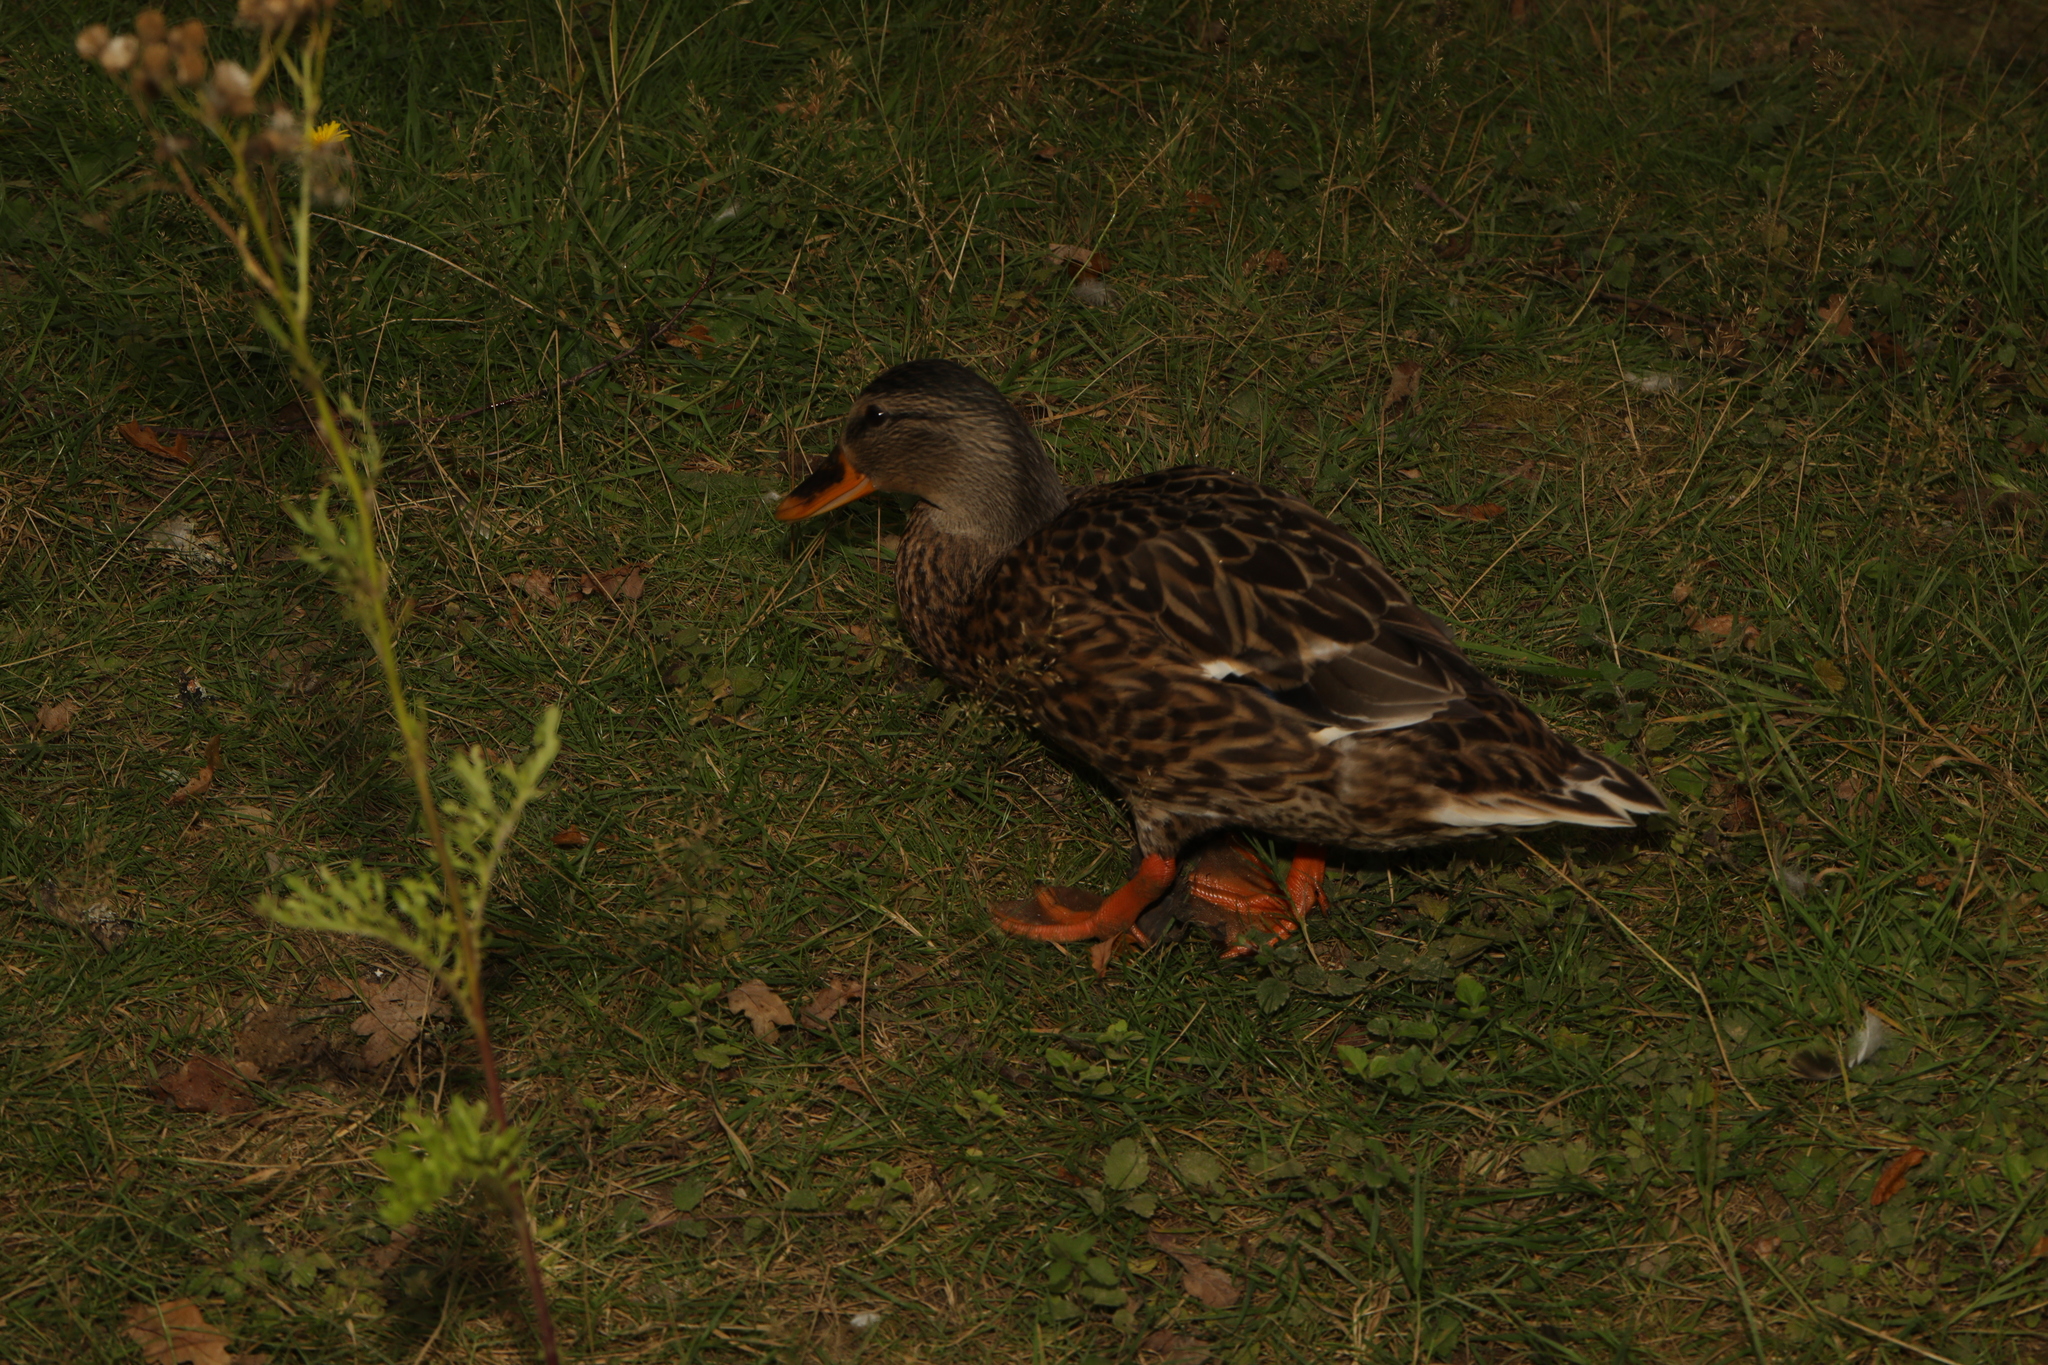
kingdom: Animalia
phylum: Chordata
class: Aves
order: Anseriformes
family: Anatidae
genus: Anas
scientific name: Anas platyrhynchos
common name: Mallard
